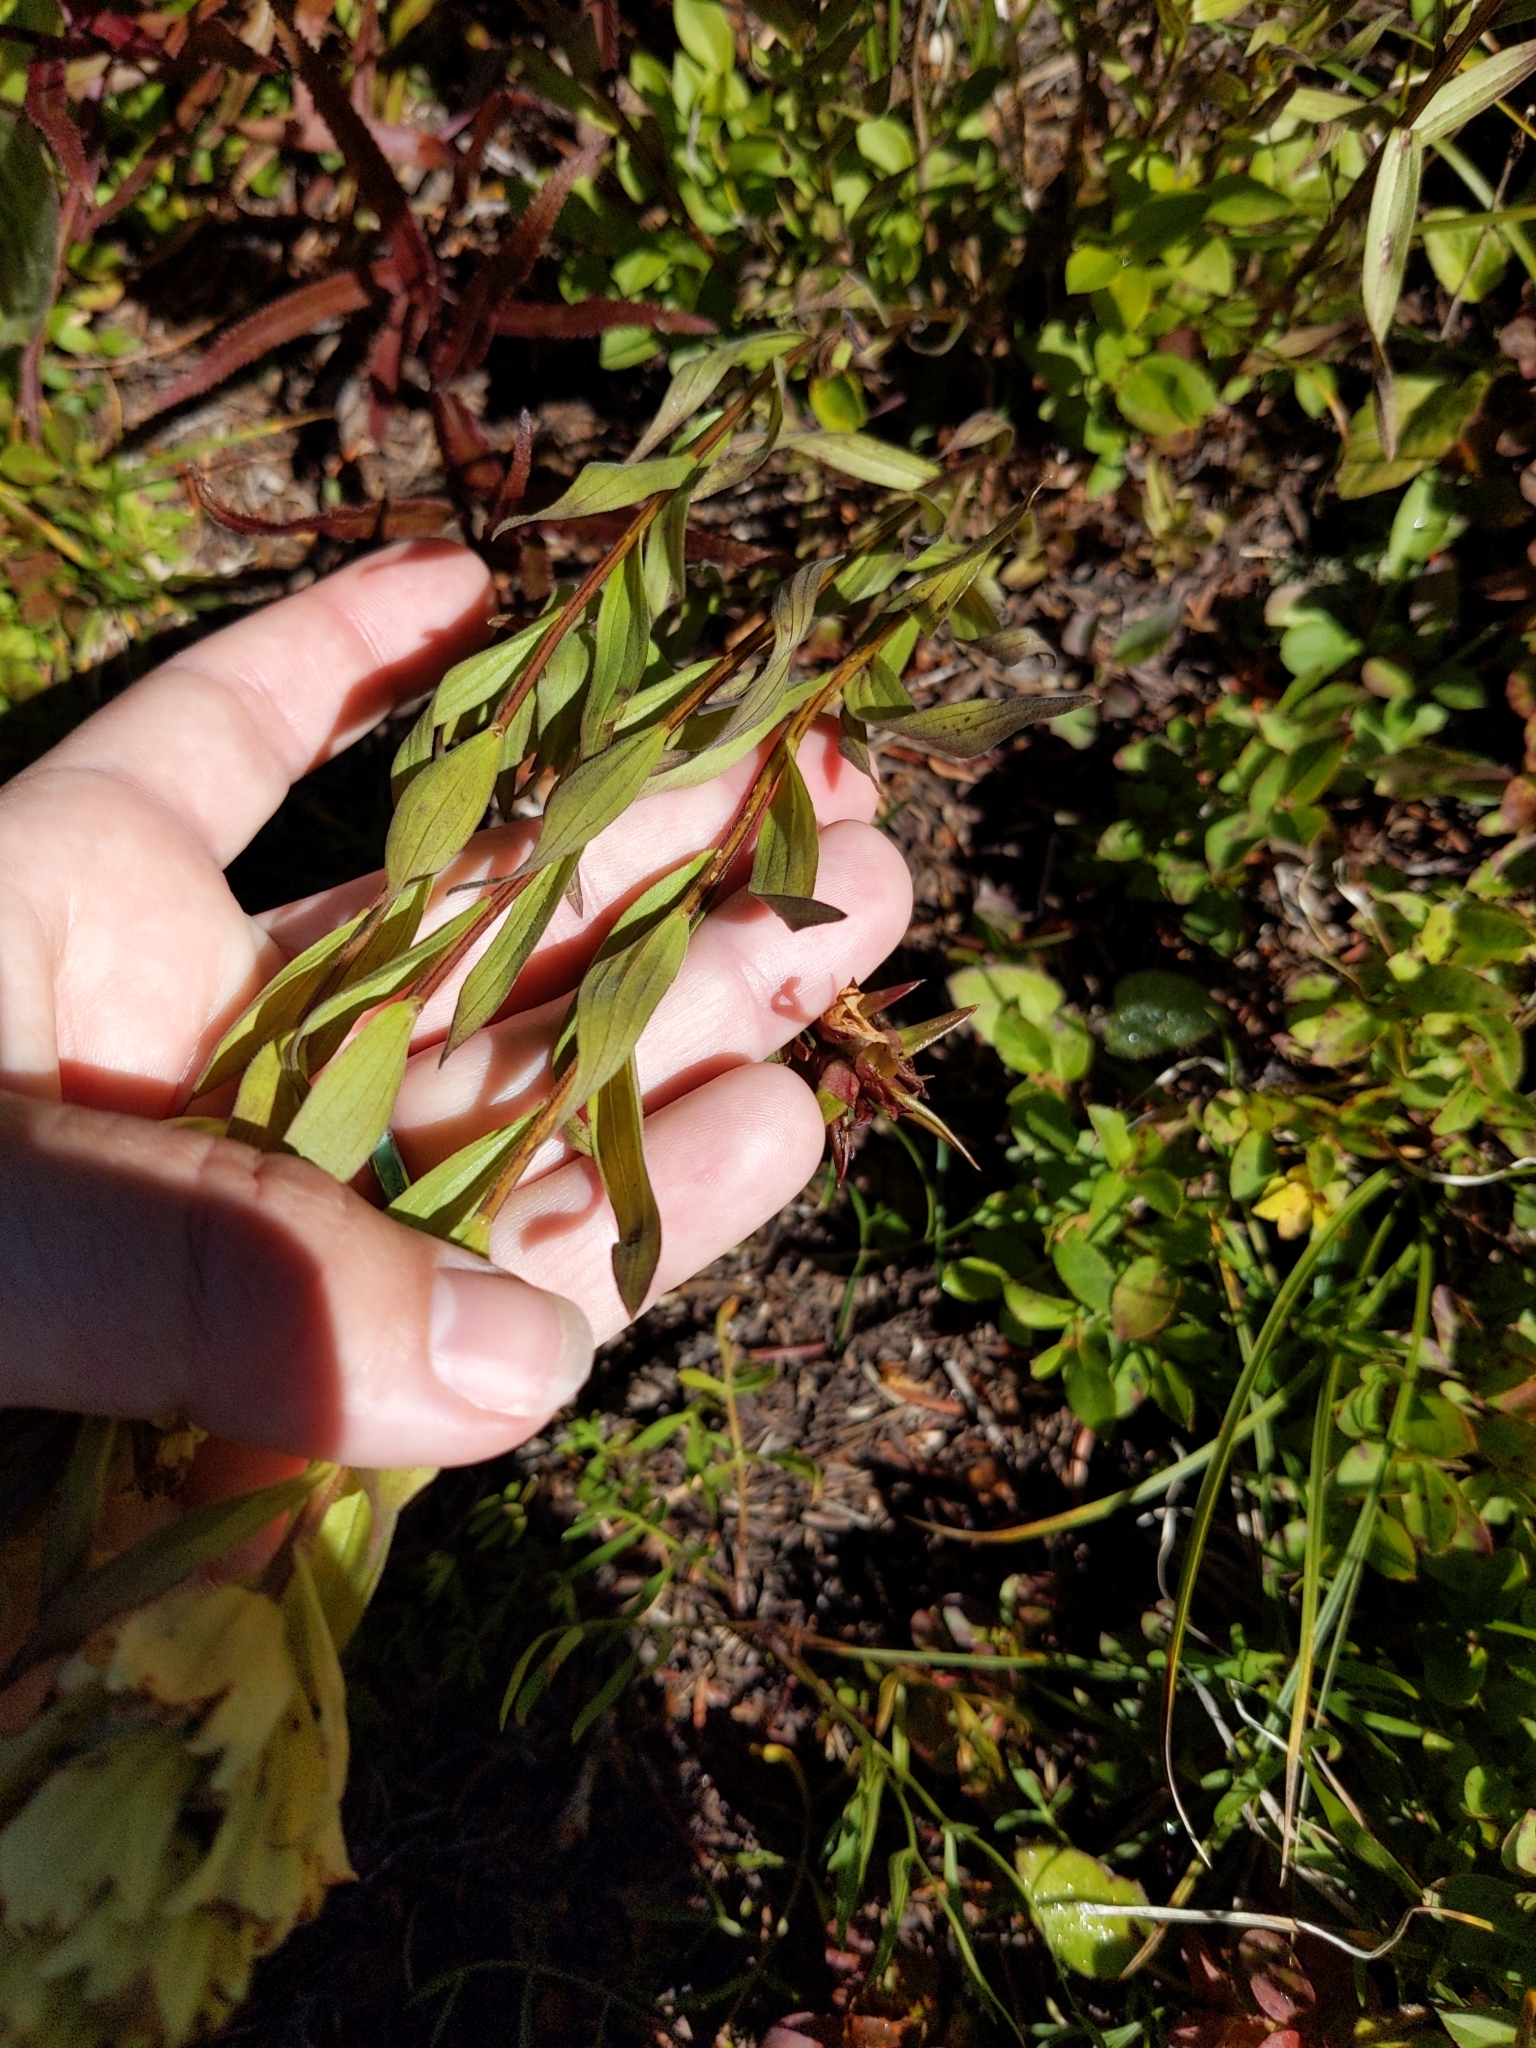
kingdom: Plantae
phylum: Tracheophyta
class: Magnoliopsida
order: Lamiales
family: Orobanchaceae
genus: Castilleja
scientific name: Castilleja occidentalis
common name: Western paintbrush
